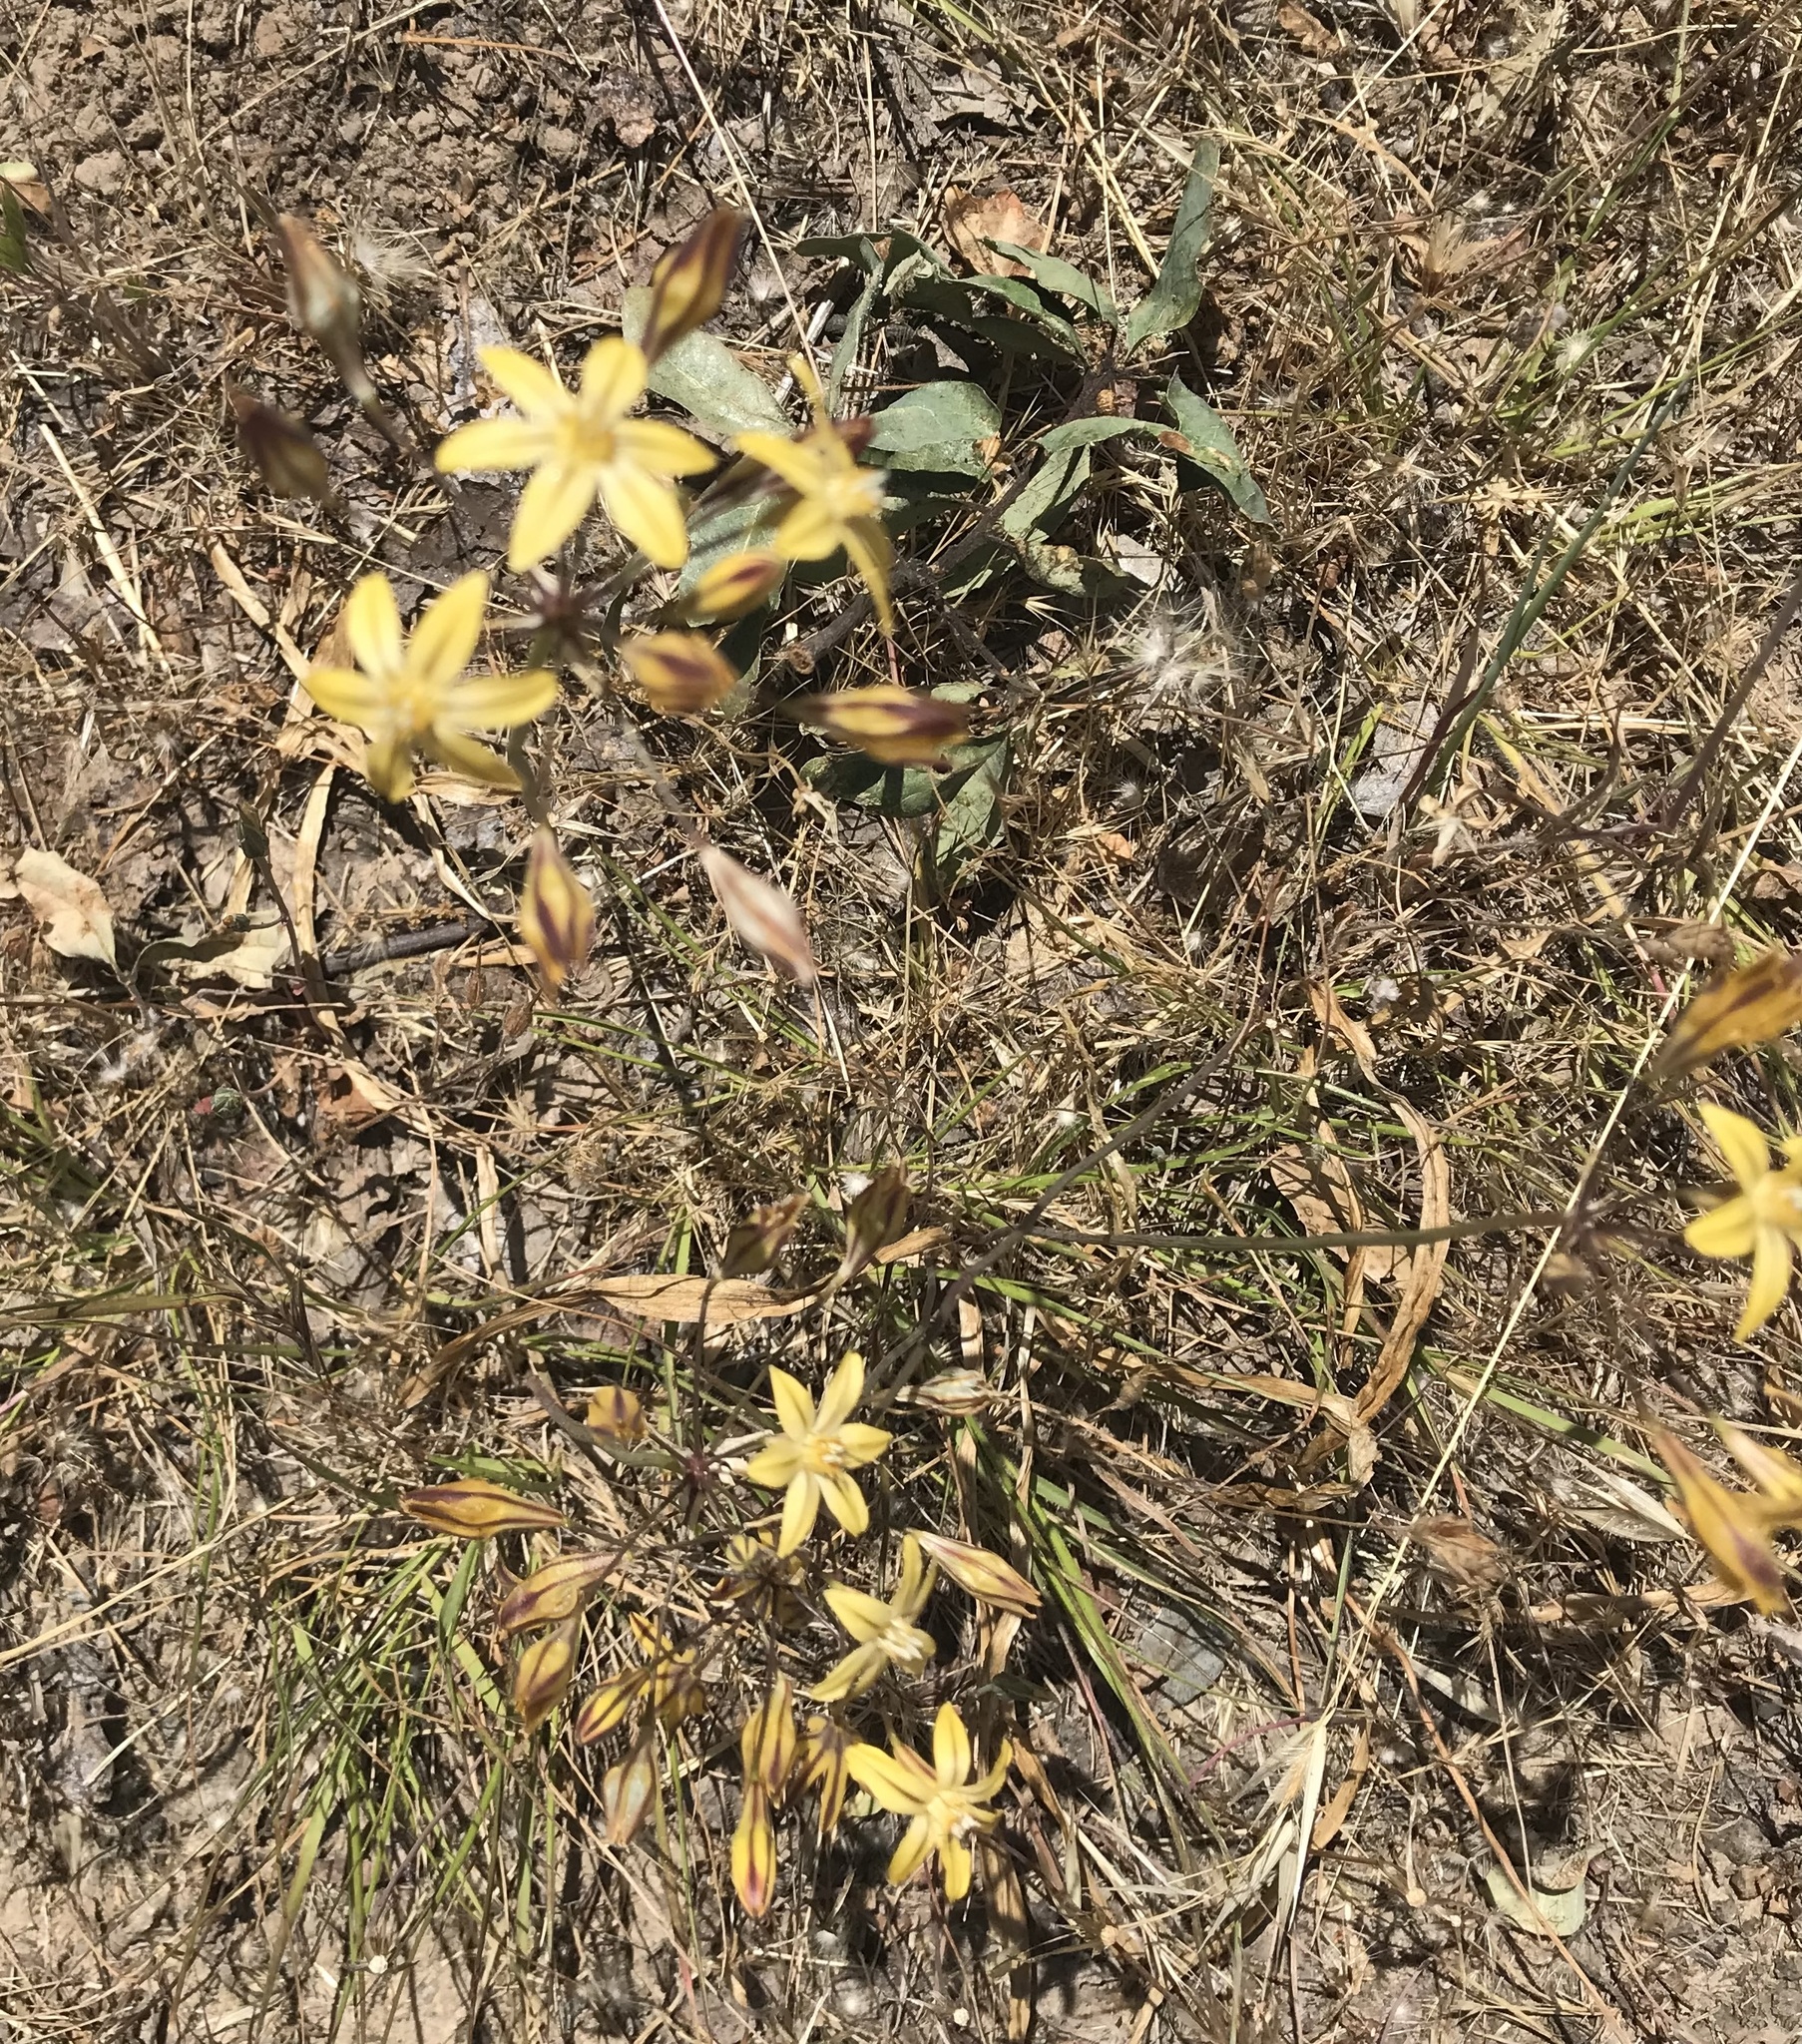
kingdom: Plantae
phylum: Tracheophyta
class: Liliopsida
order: Asparagales
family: Asparagaceae
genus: Triteleia
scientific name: Triteleia ixioides
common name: Yellow-brodiaea
